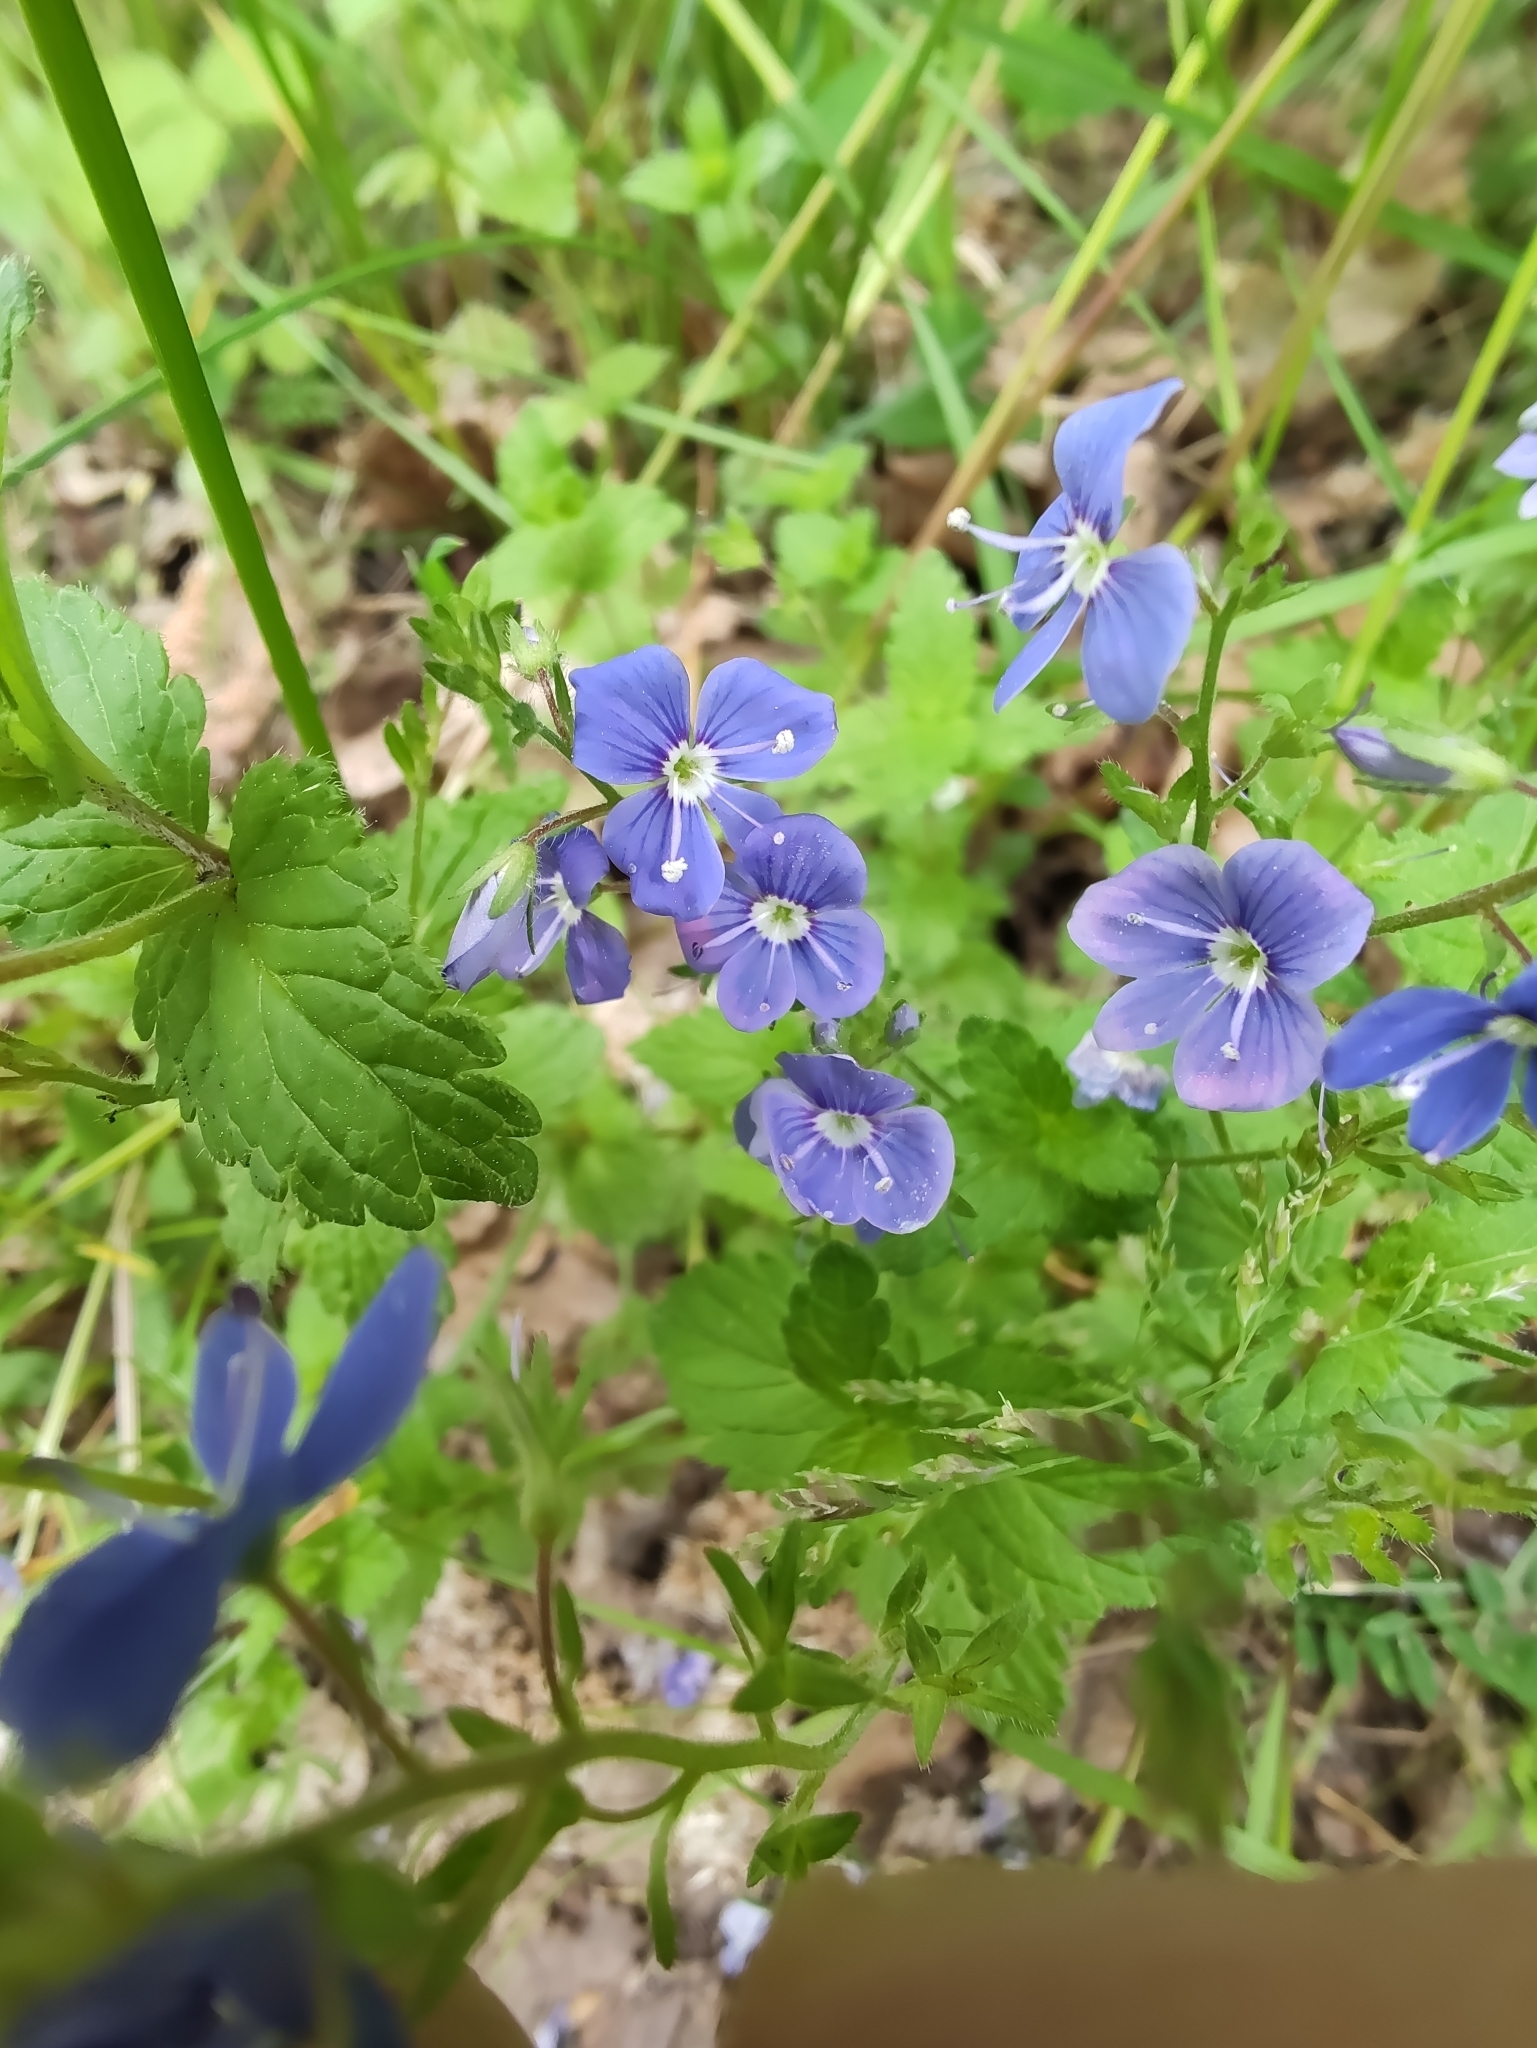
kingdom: Plantae
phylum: Tracheophyta
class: Magnoliopsida
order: Lamiales
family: Plantaginaceae
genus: Veronica
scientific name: Veronica chamaedrys
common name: Germander speedwell
